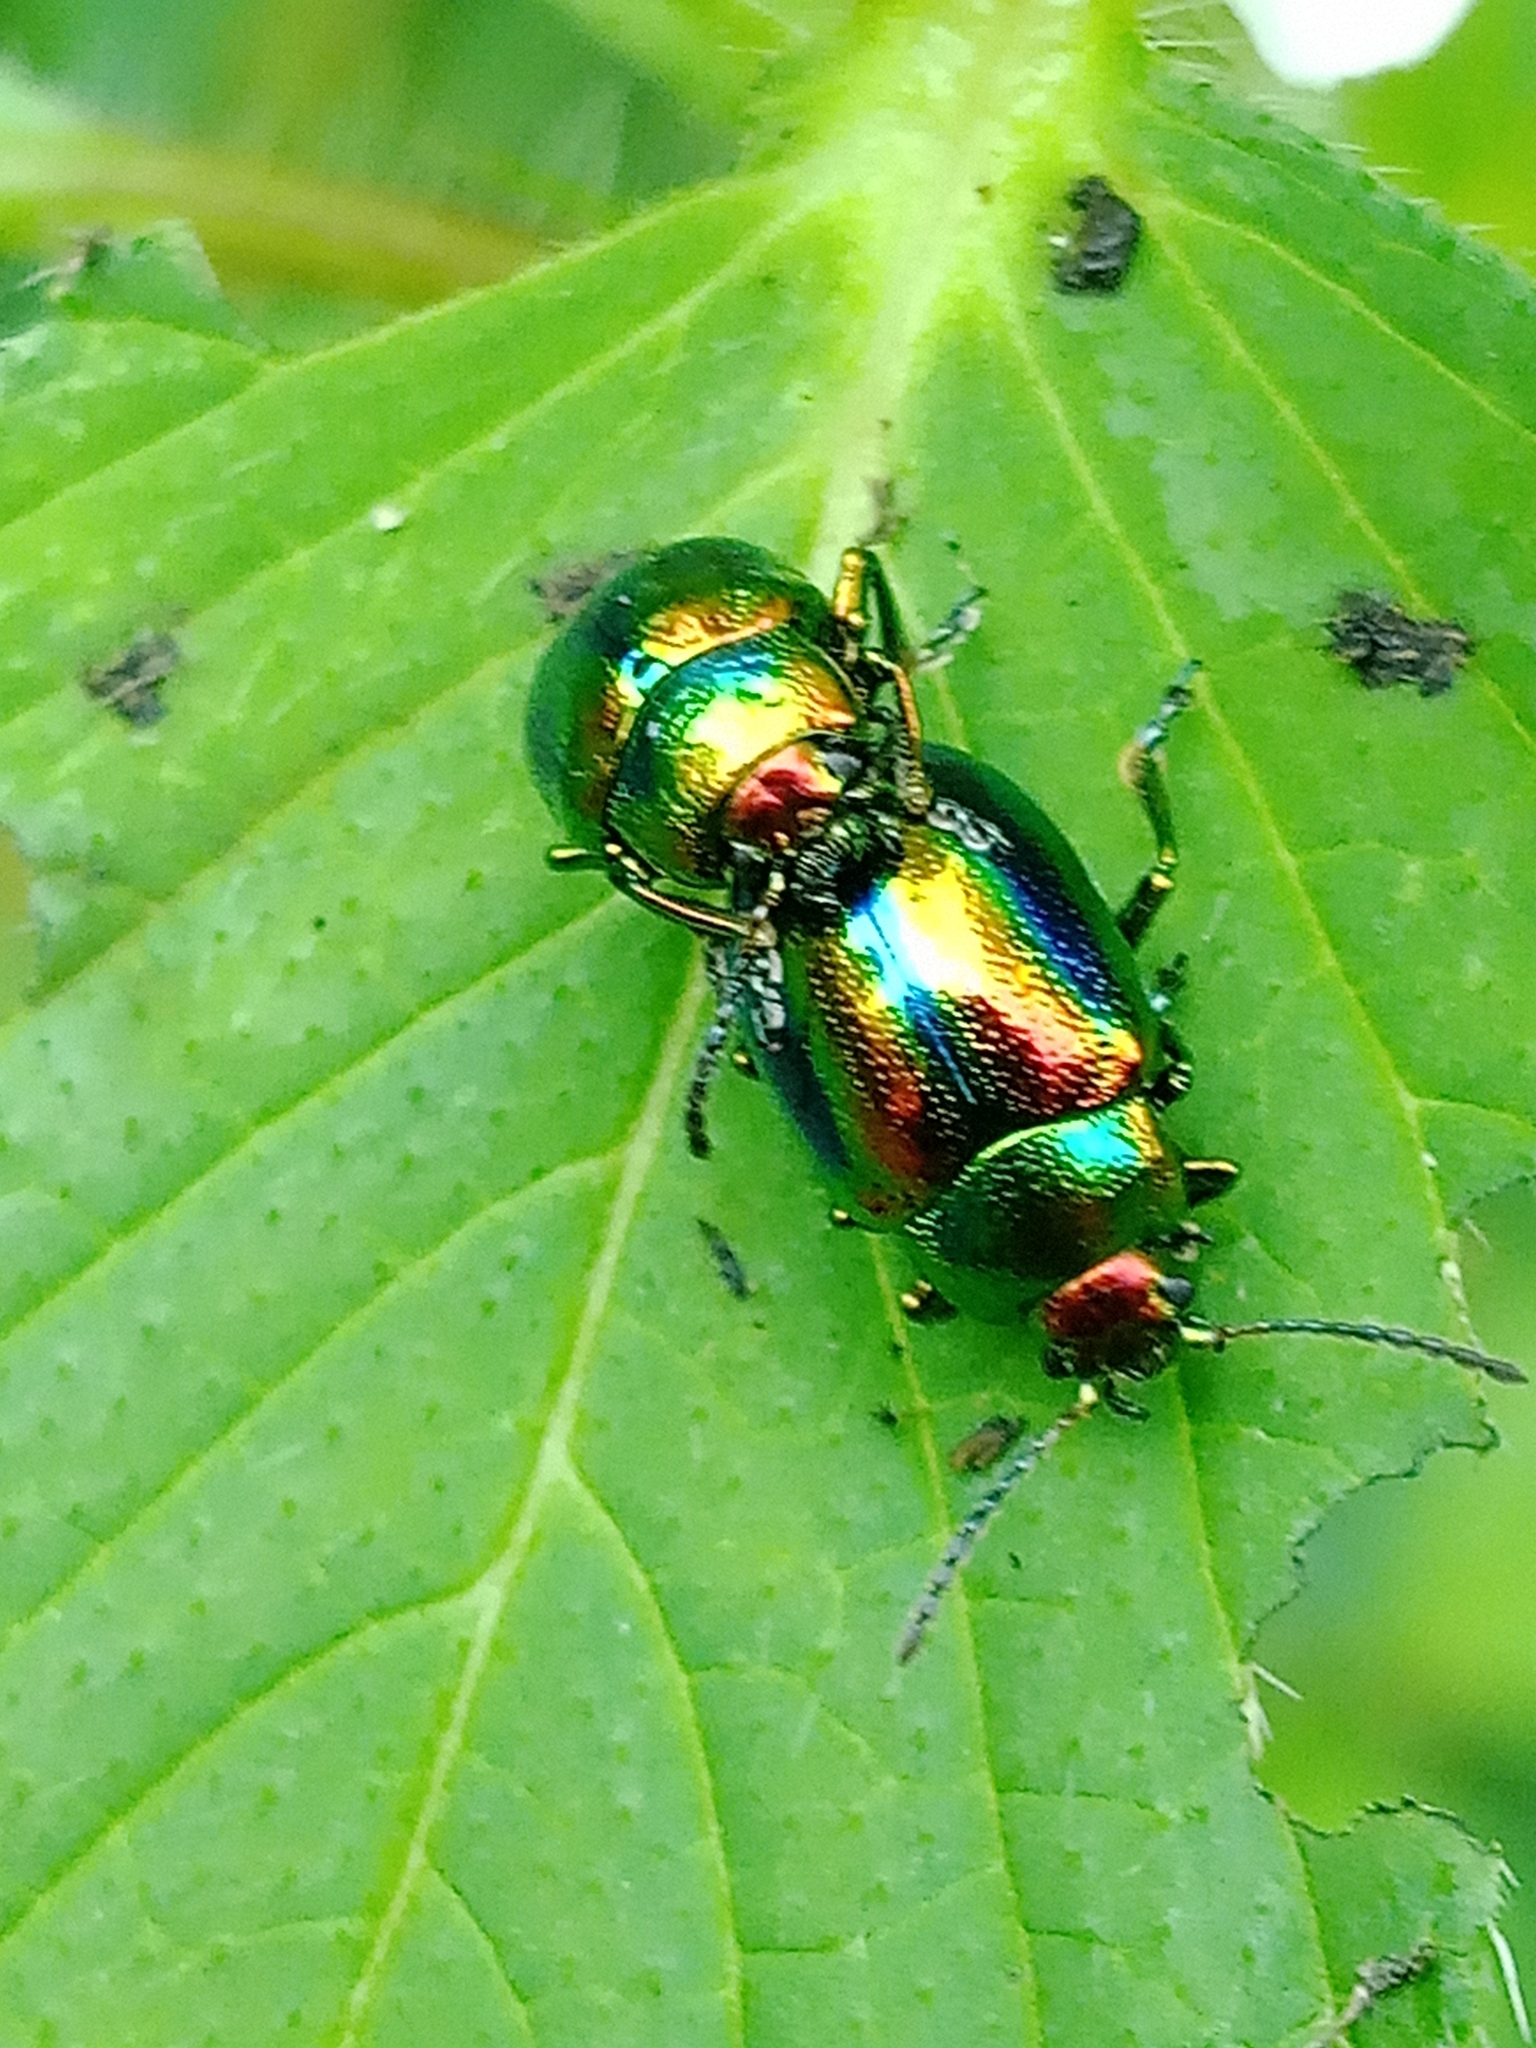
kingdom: Animalia
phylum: Arthropoda
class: Insecta
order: Coleoptera
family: Chrysomelidae
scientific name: Chrysomelidae
